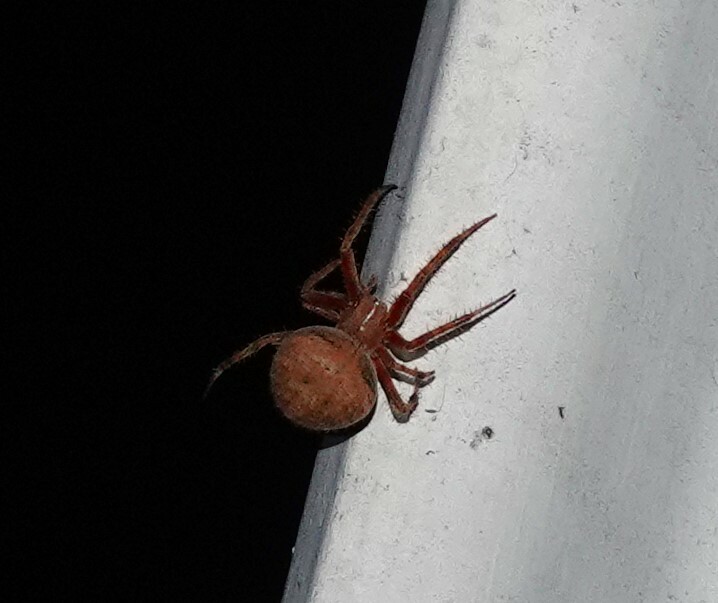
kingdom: Animalia
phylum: Arthropoda
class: Arachnida
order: Araneae
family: Araneidae
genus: Neoscona
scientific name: Neoscona crucifera
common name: Spotted orbweaver
